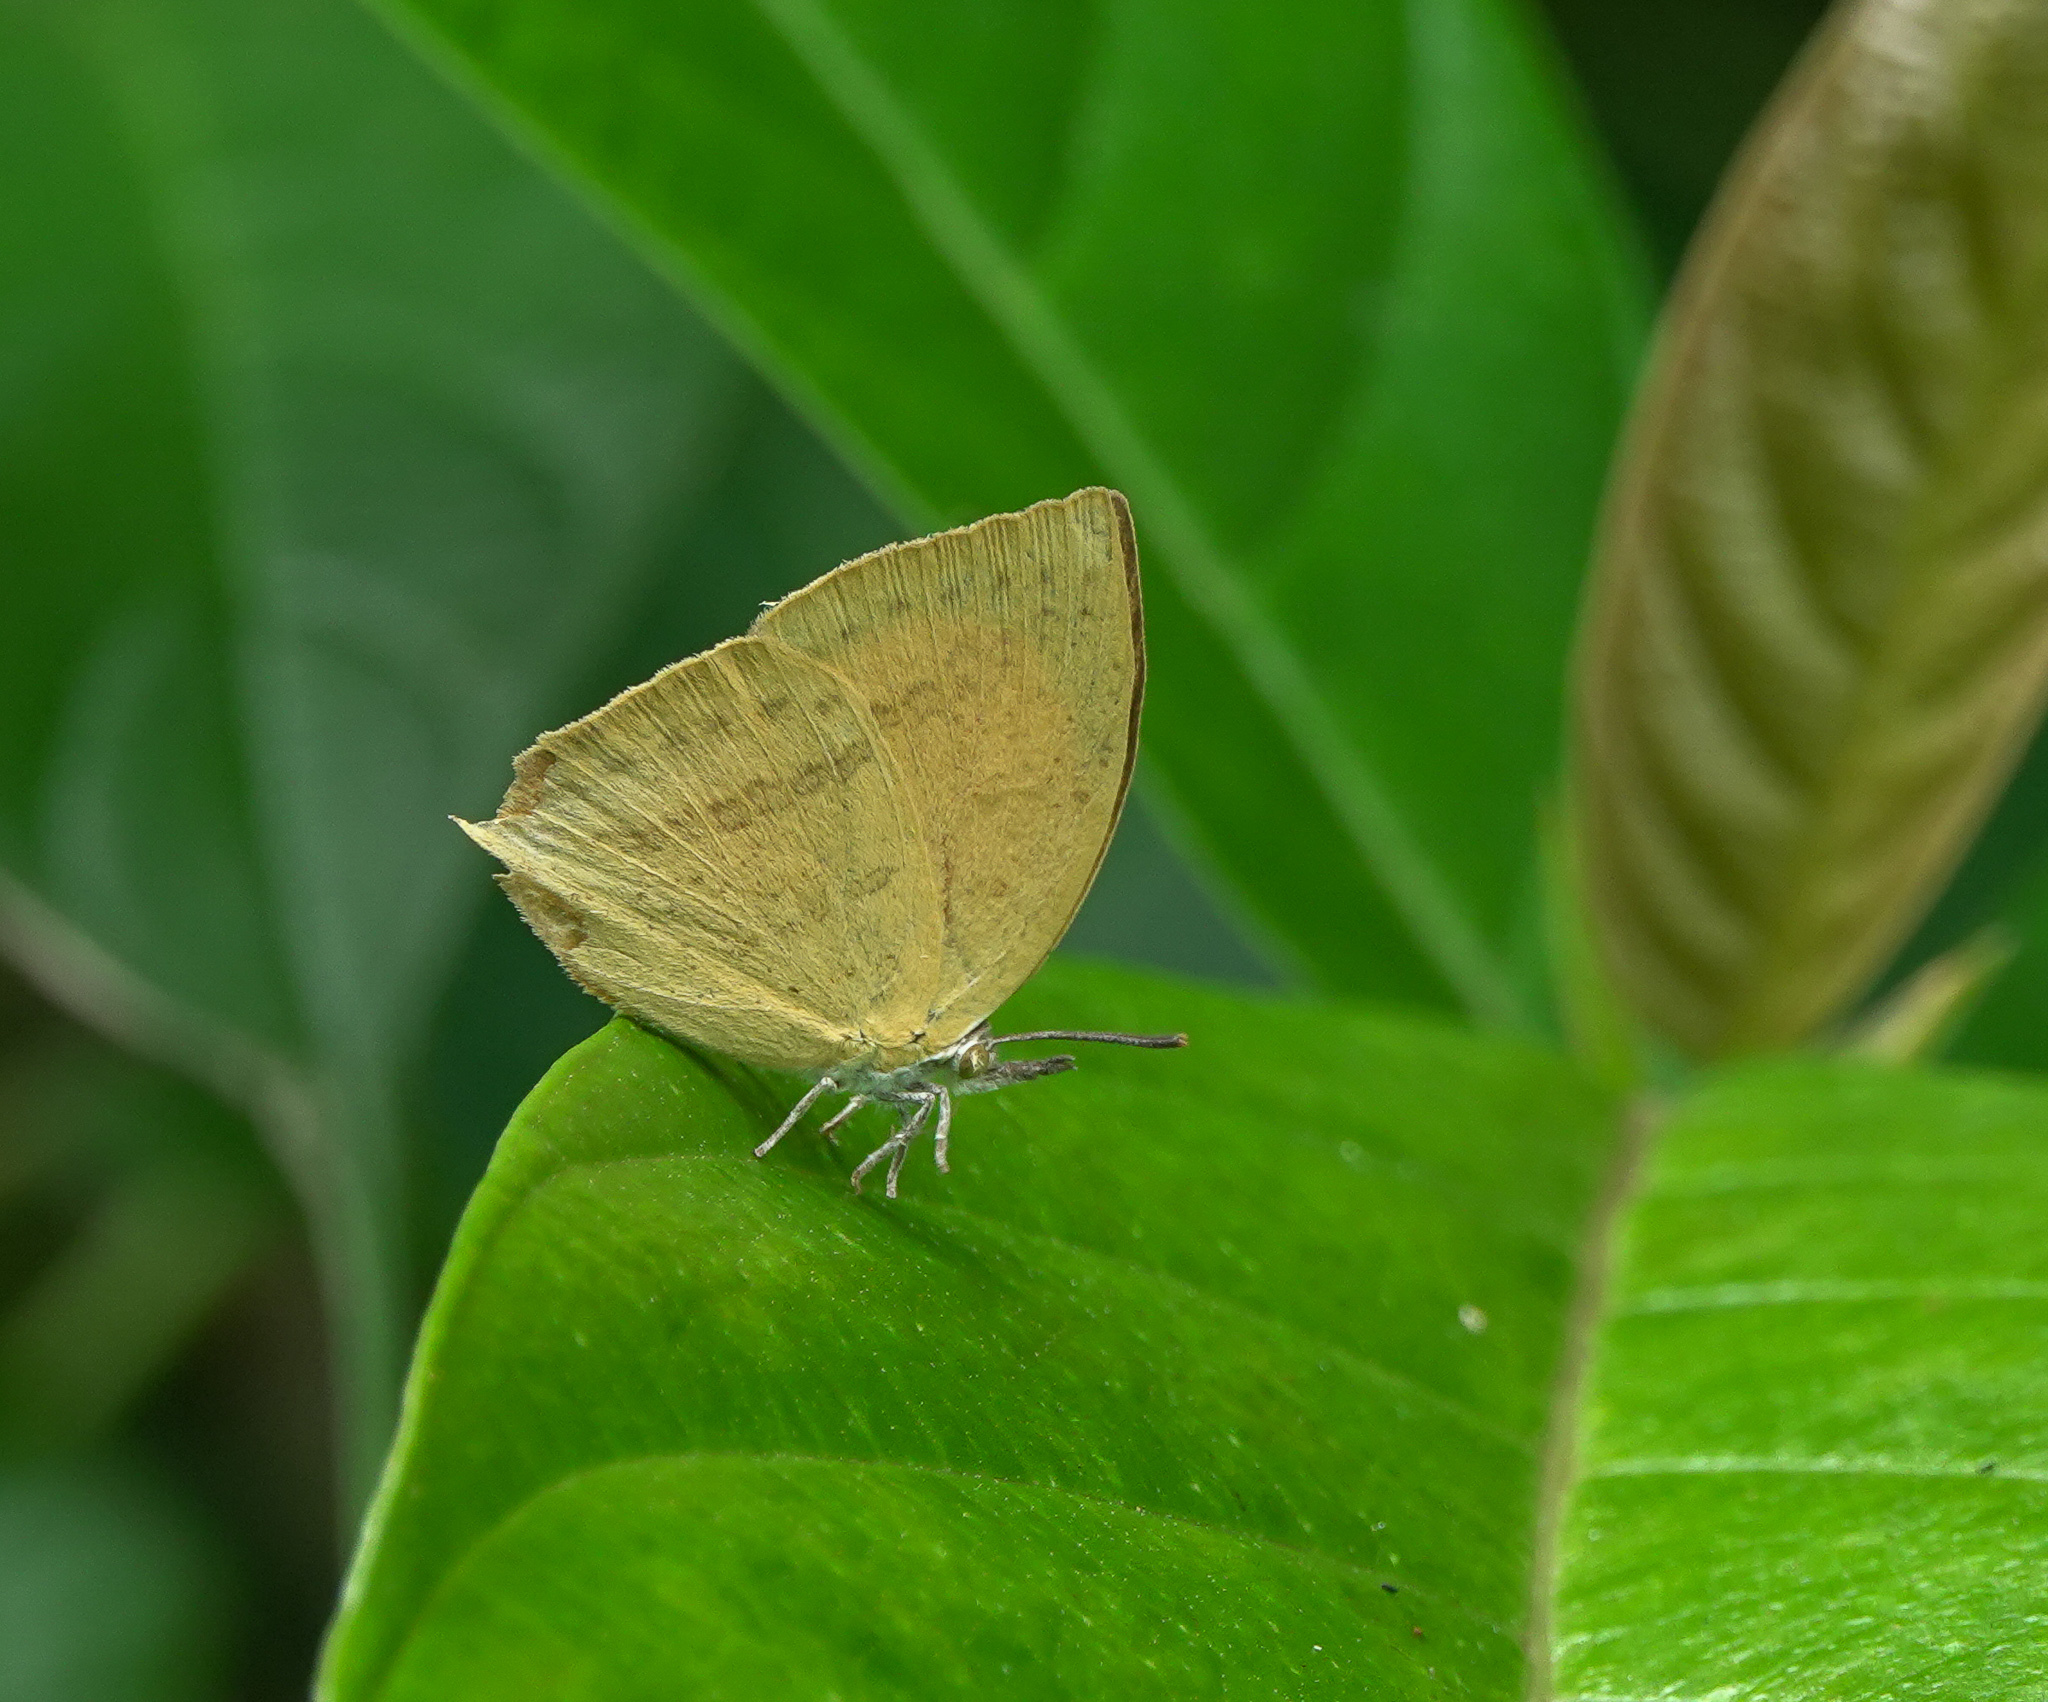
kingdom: Animalia
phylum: Arthropoda
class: Insecta
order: Lepidoptera
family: Lycaenidae
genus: Loxura
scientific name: Loxura atymnus
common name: Common yamfly
